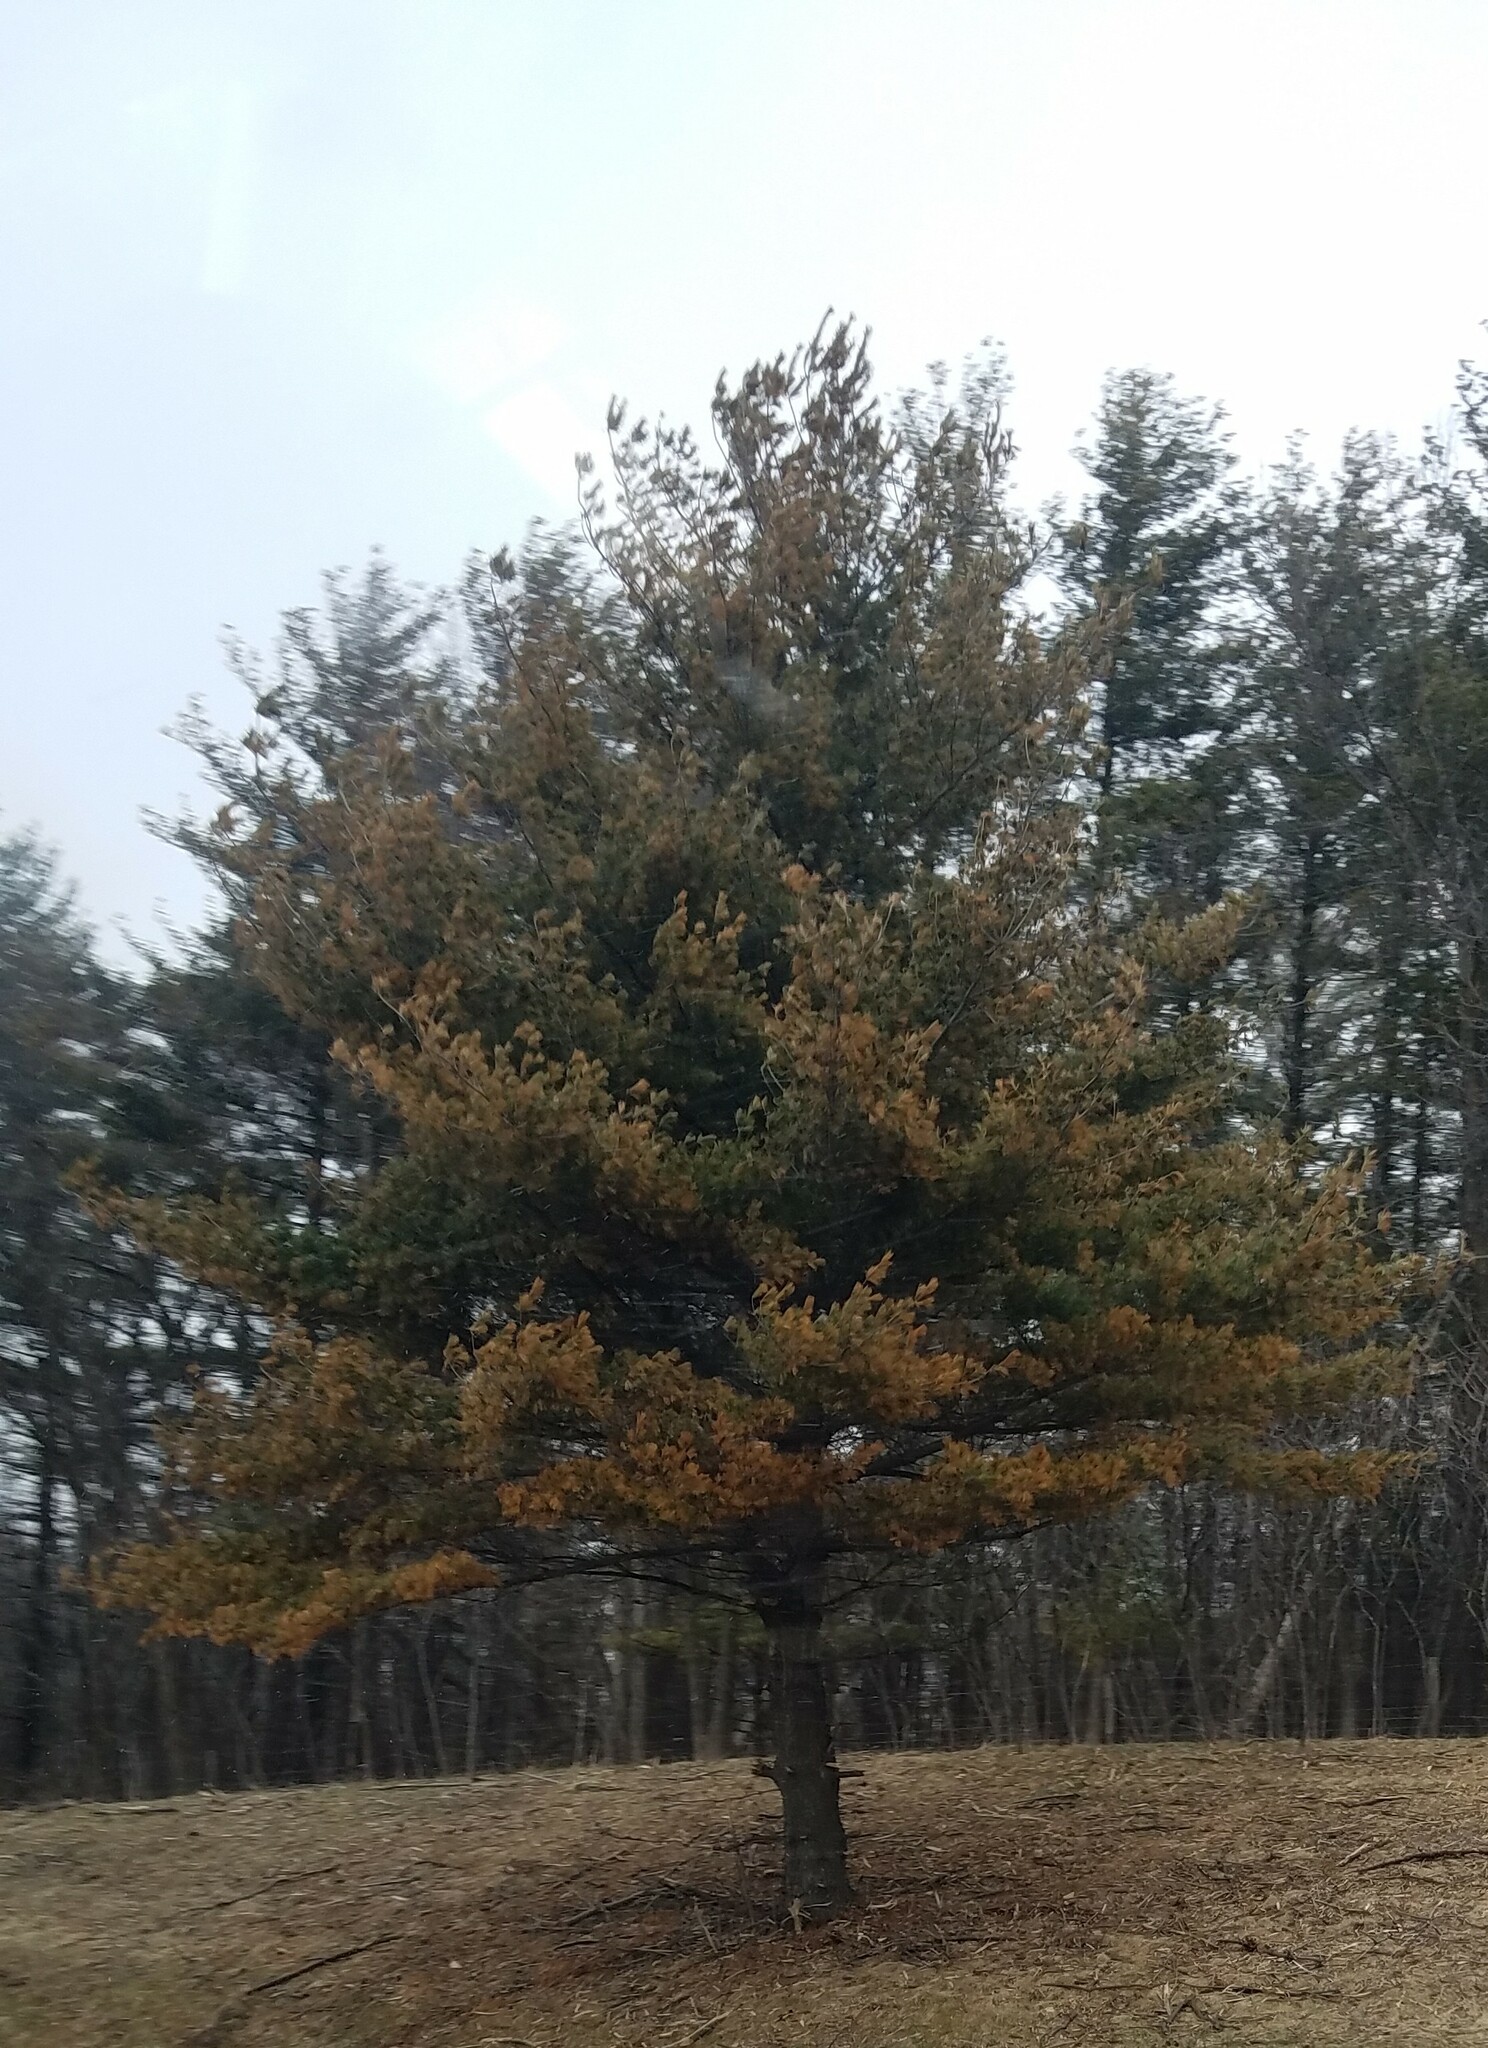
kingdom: Plantae
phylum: Tracheophyta
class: Pinopsida
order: Pinales
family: Pinaceae
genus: Pinus
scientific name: Pinus strobus
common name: Weymouth pine
